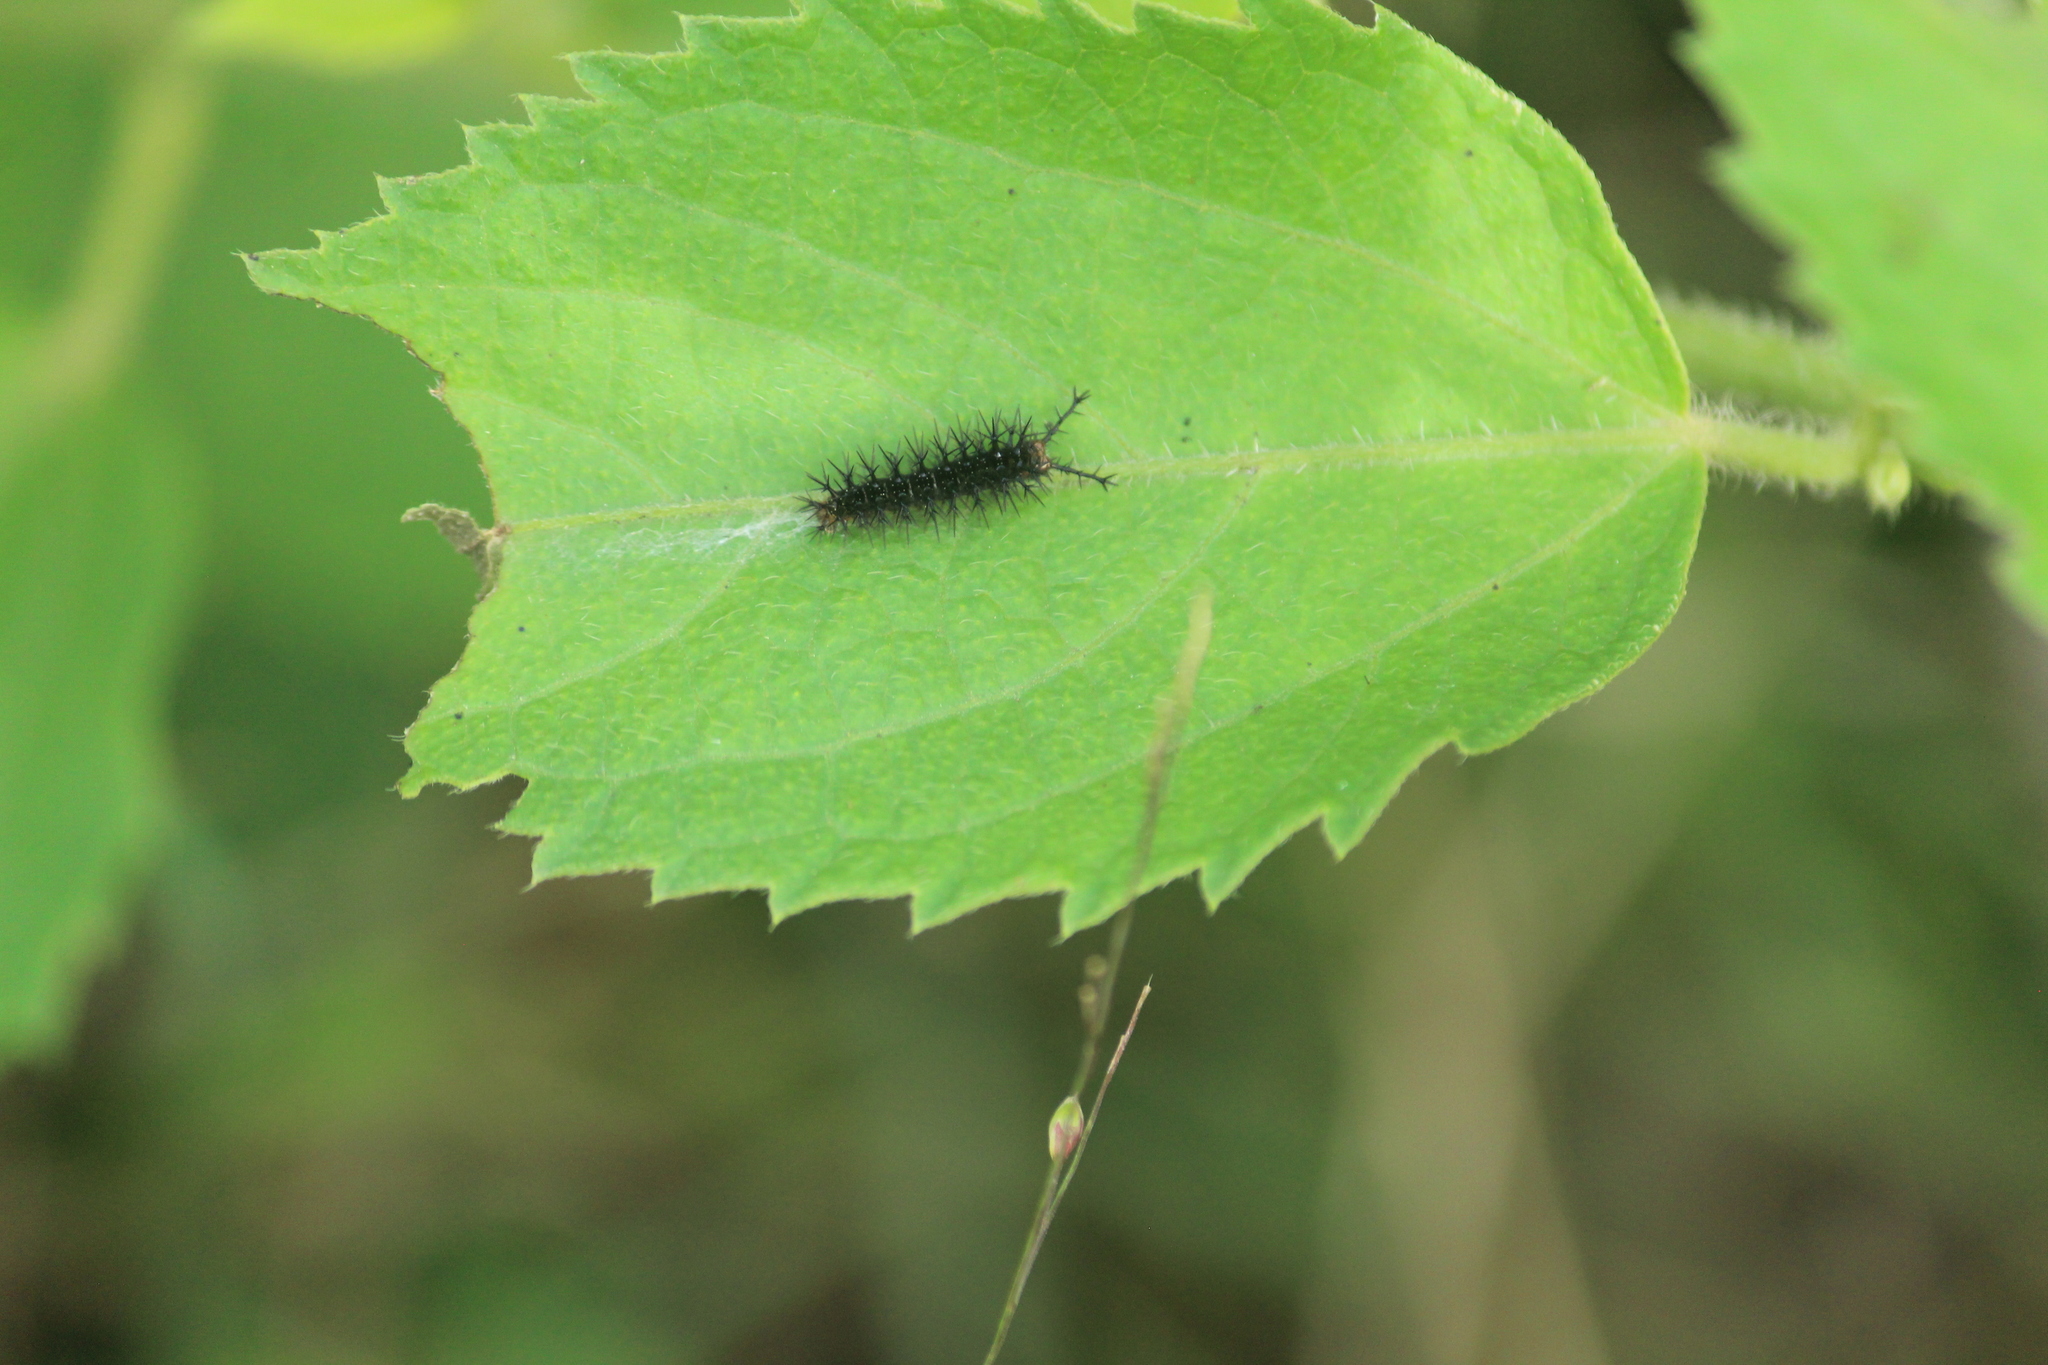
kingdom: Animalia
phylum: Arthropoda
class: Insecta
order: Lepidoptera
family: Nymphalidae
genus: Ariadne
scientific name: Ariadne ariadne
